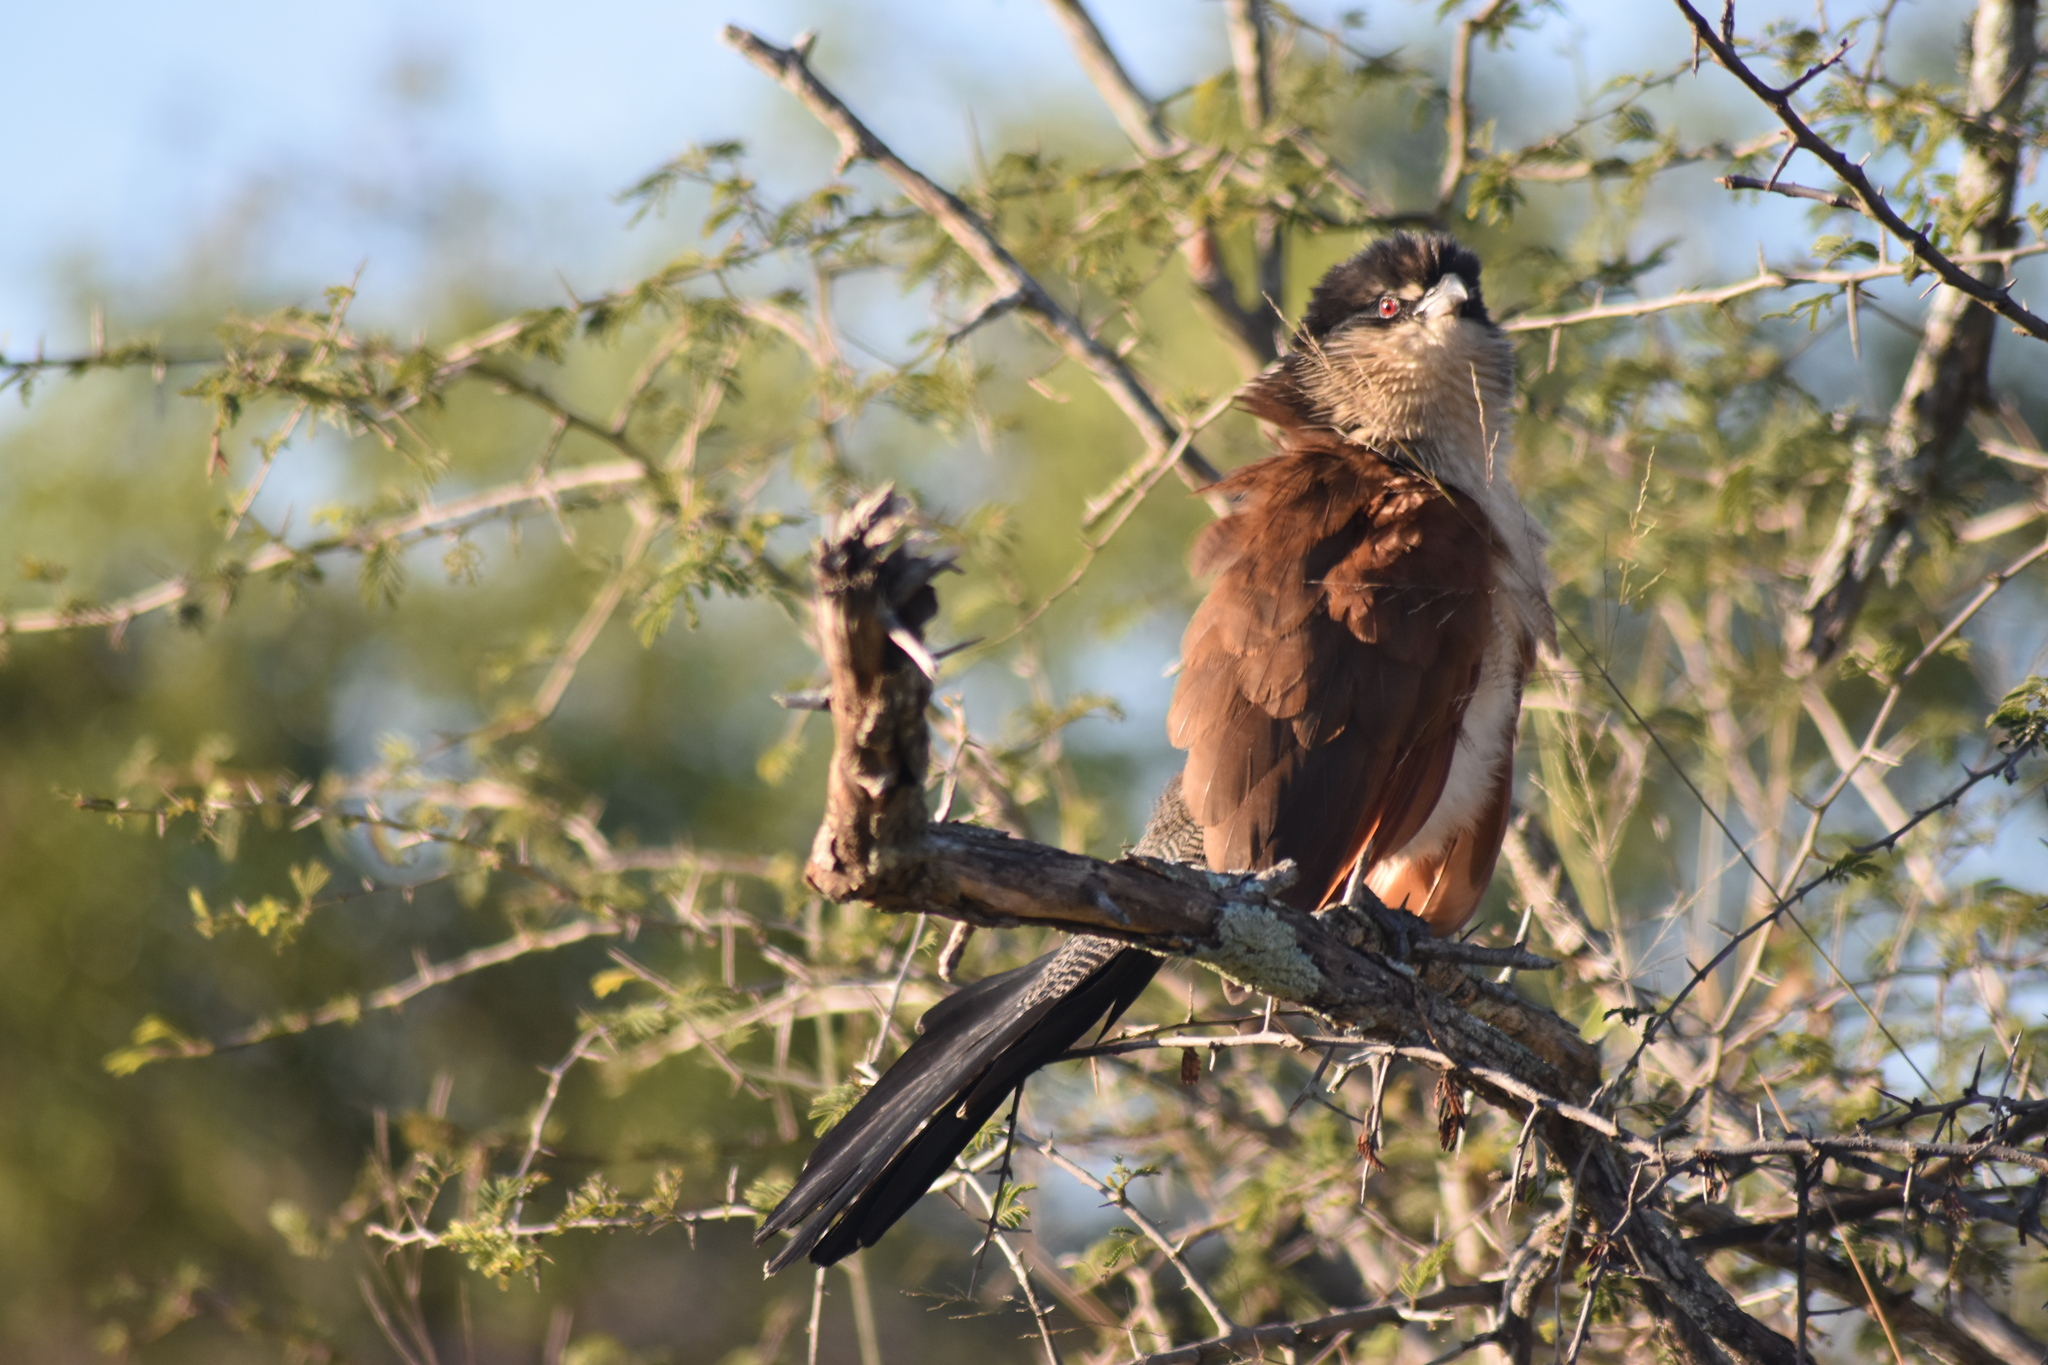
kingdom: Animalia
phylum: Chordata
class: Aves
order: Cuculiformes
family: Cuculidae
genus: Centropus
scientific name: Centropus superciliosus
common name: White-browed coucal
